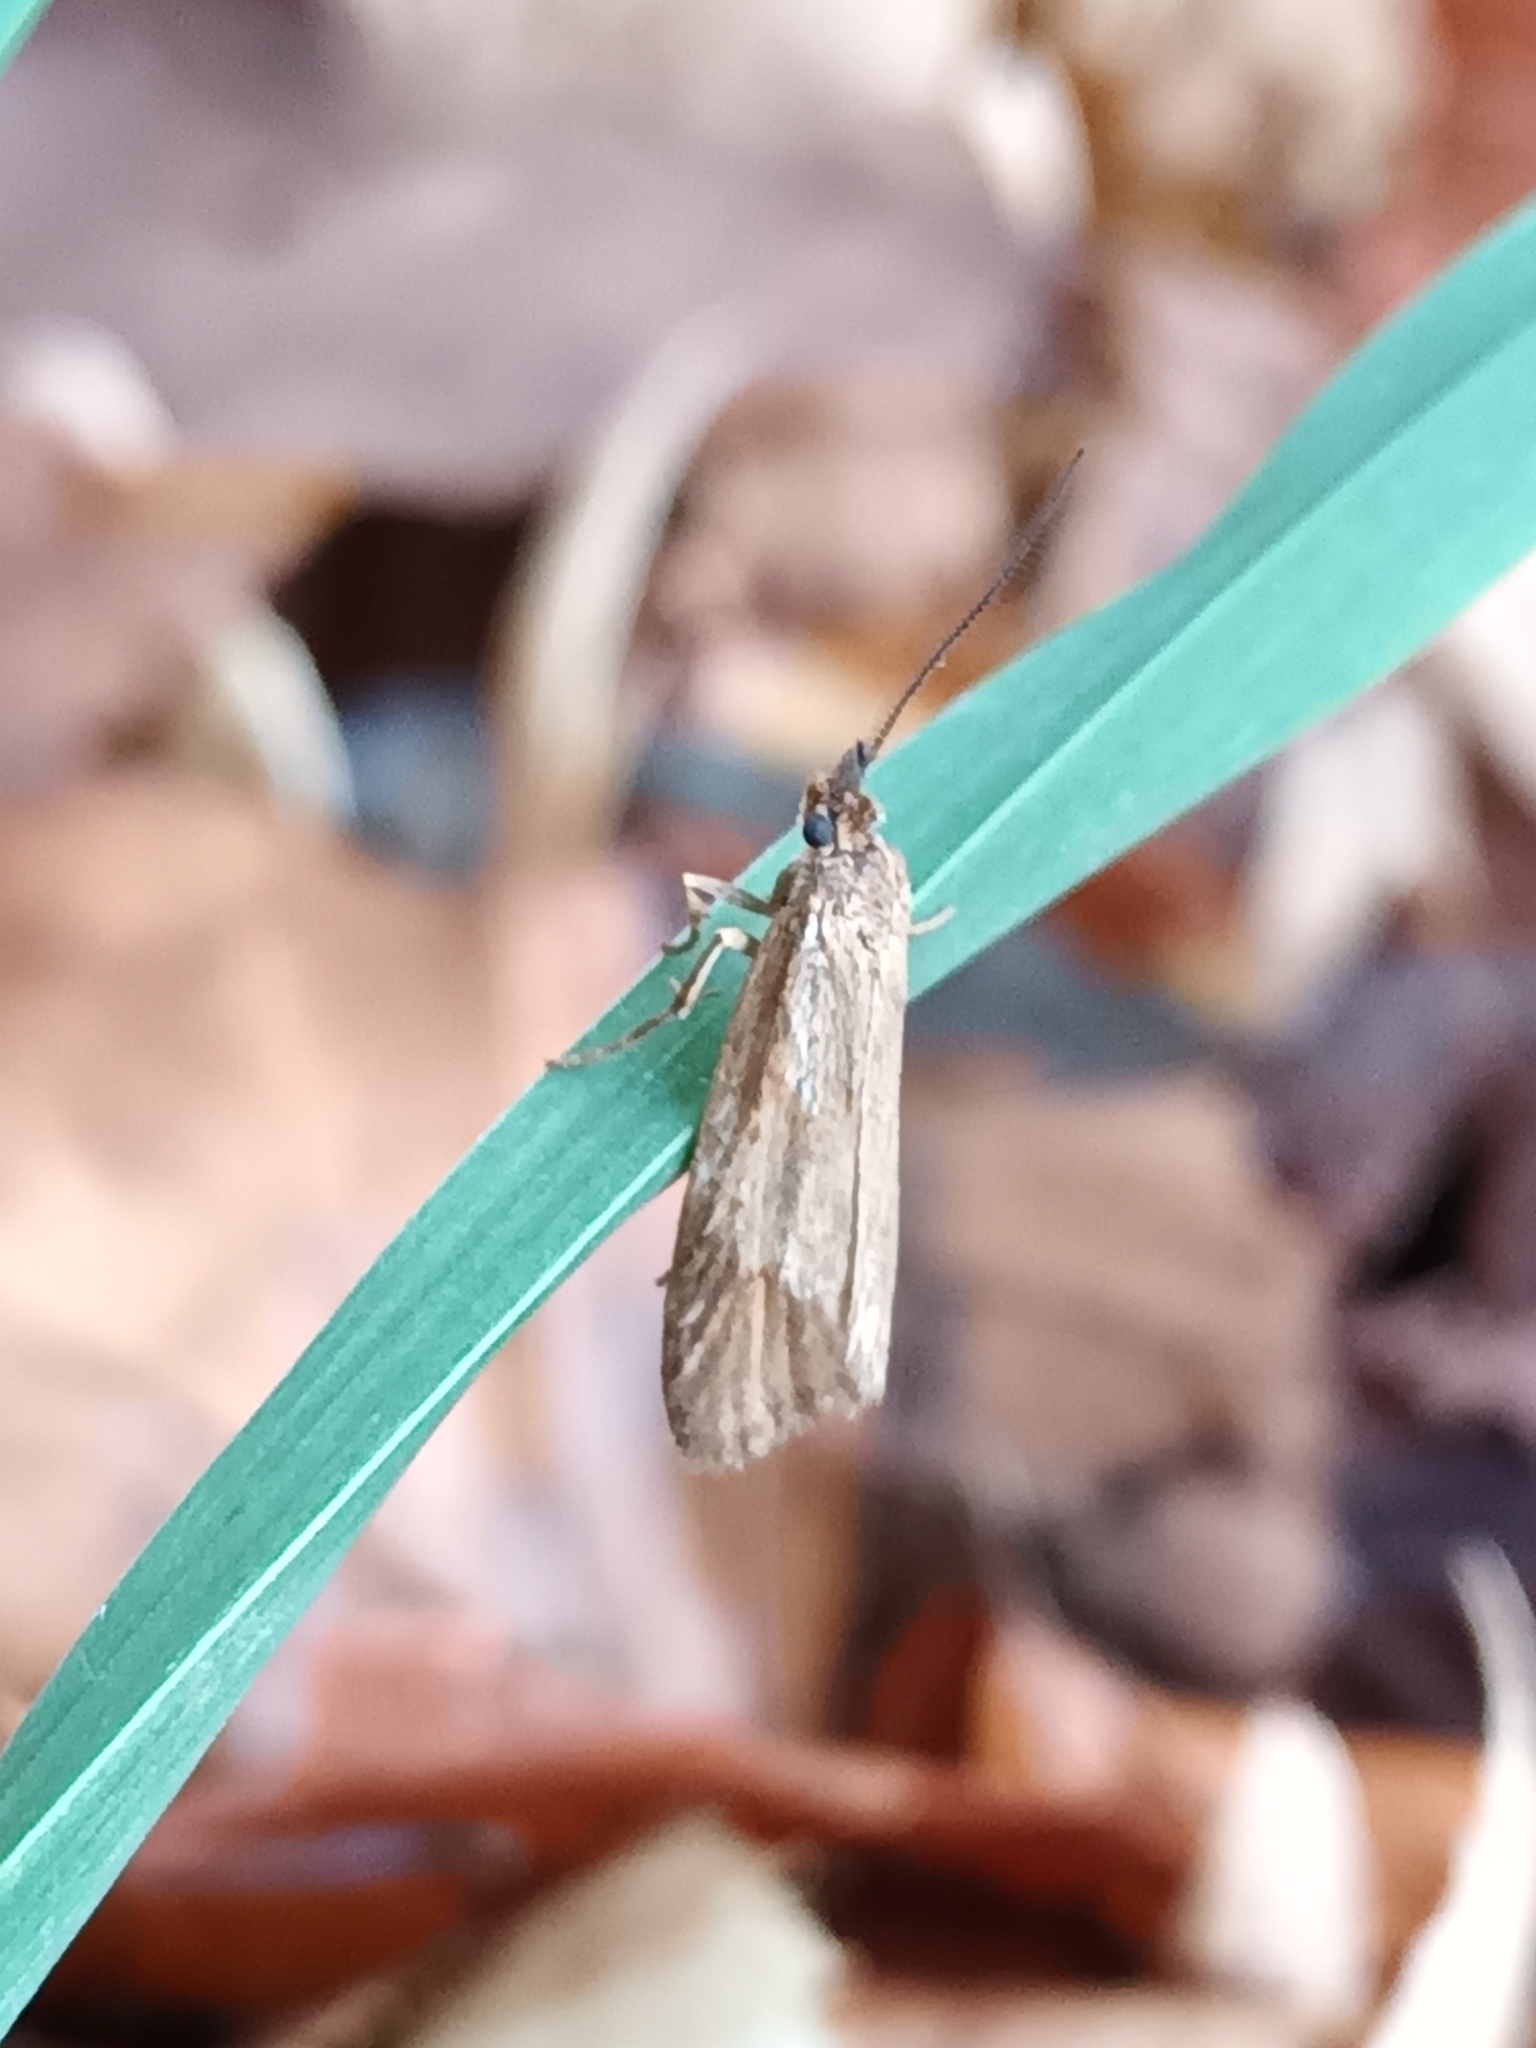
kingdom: Animalia
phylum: Arthropoda
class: Insecta
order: Lepidoptera
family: Lypusidae
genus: Diurnea
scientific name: Diurnea lipsiella
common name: November tubic
